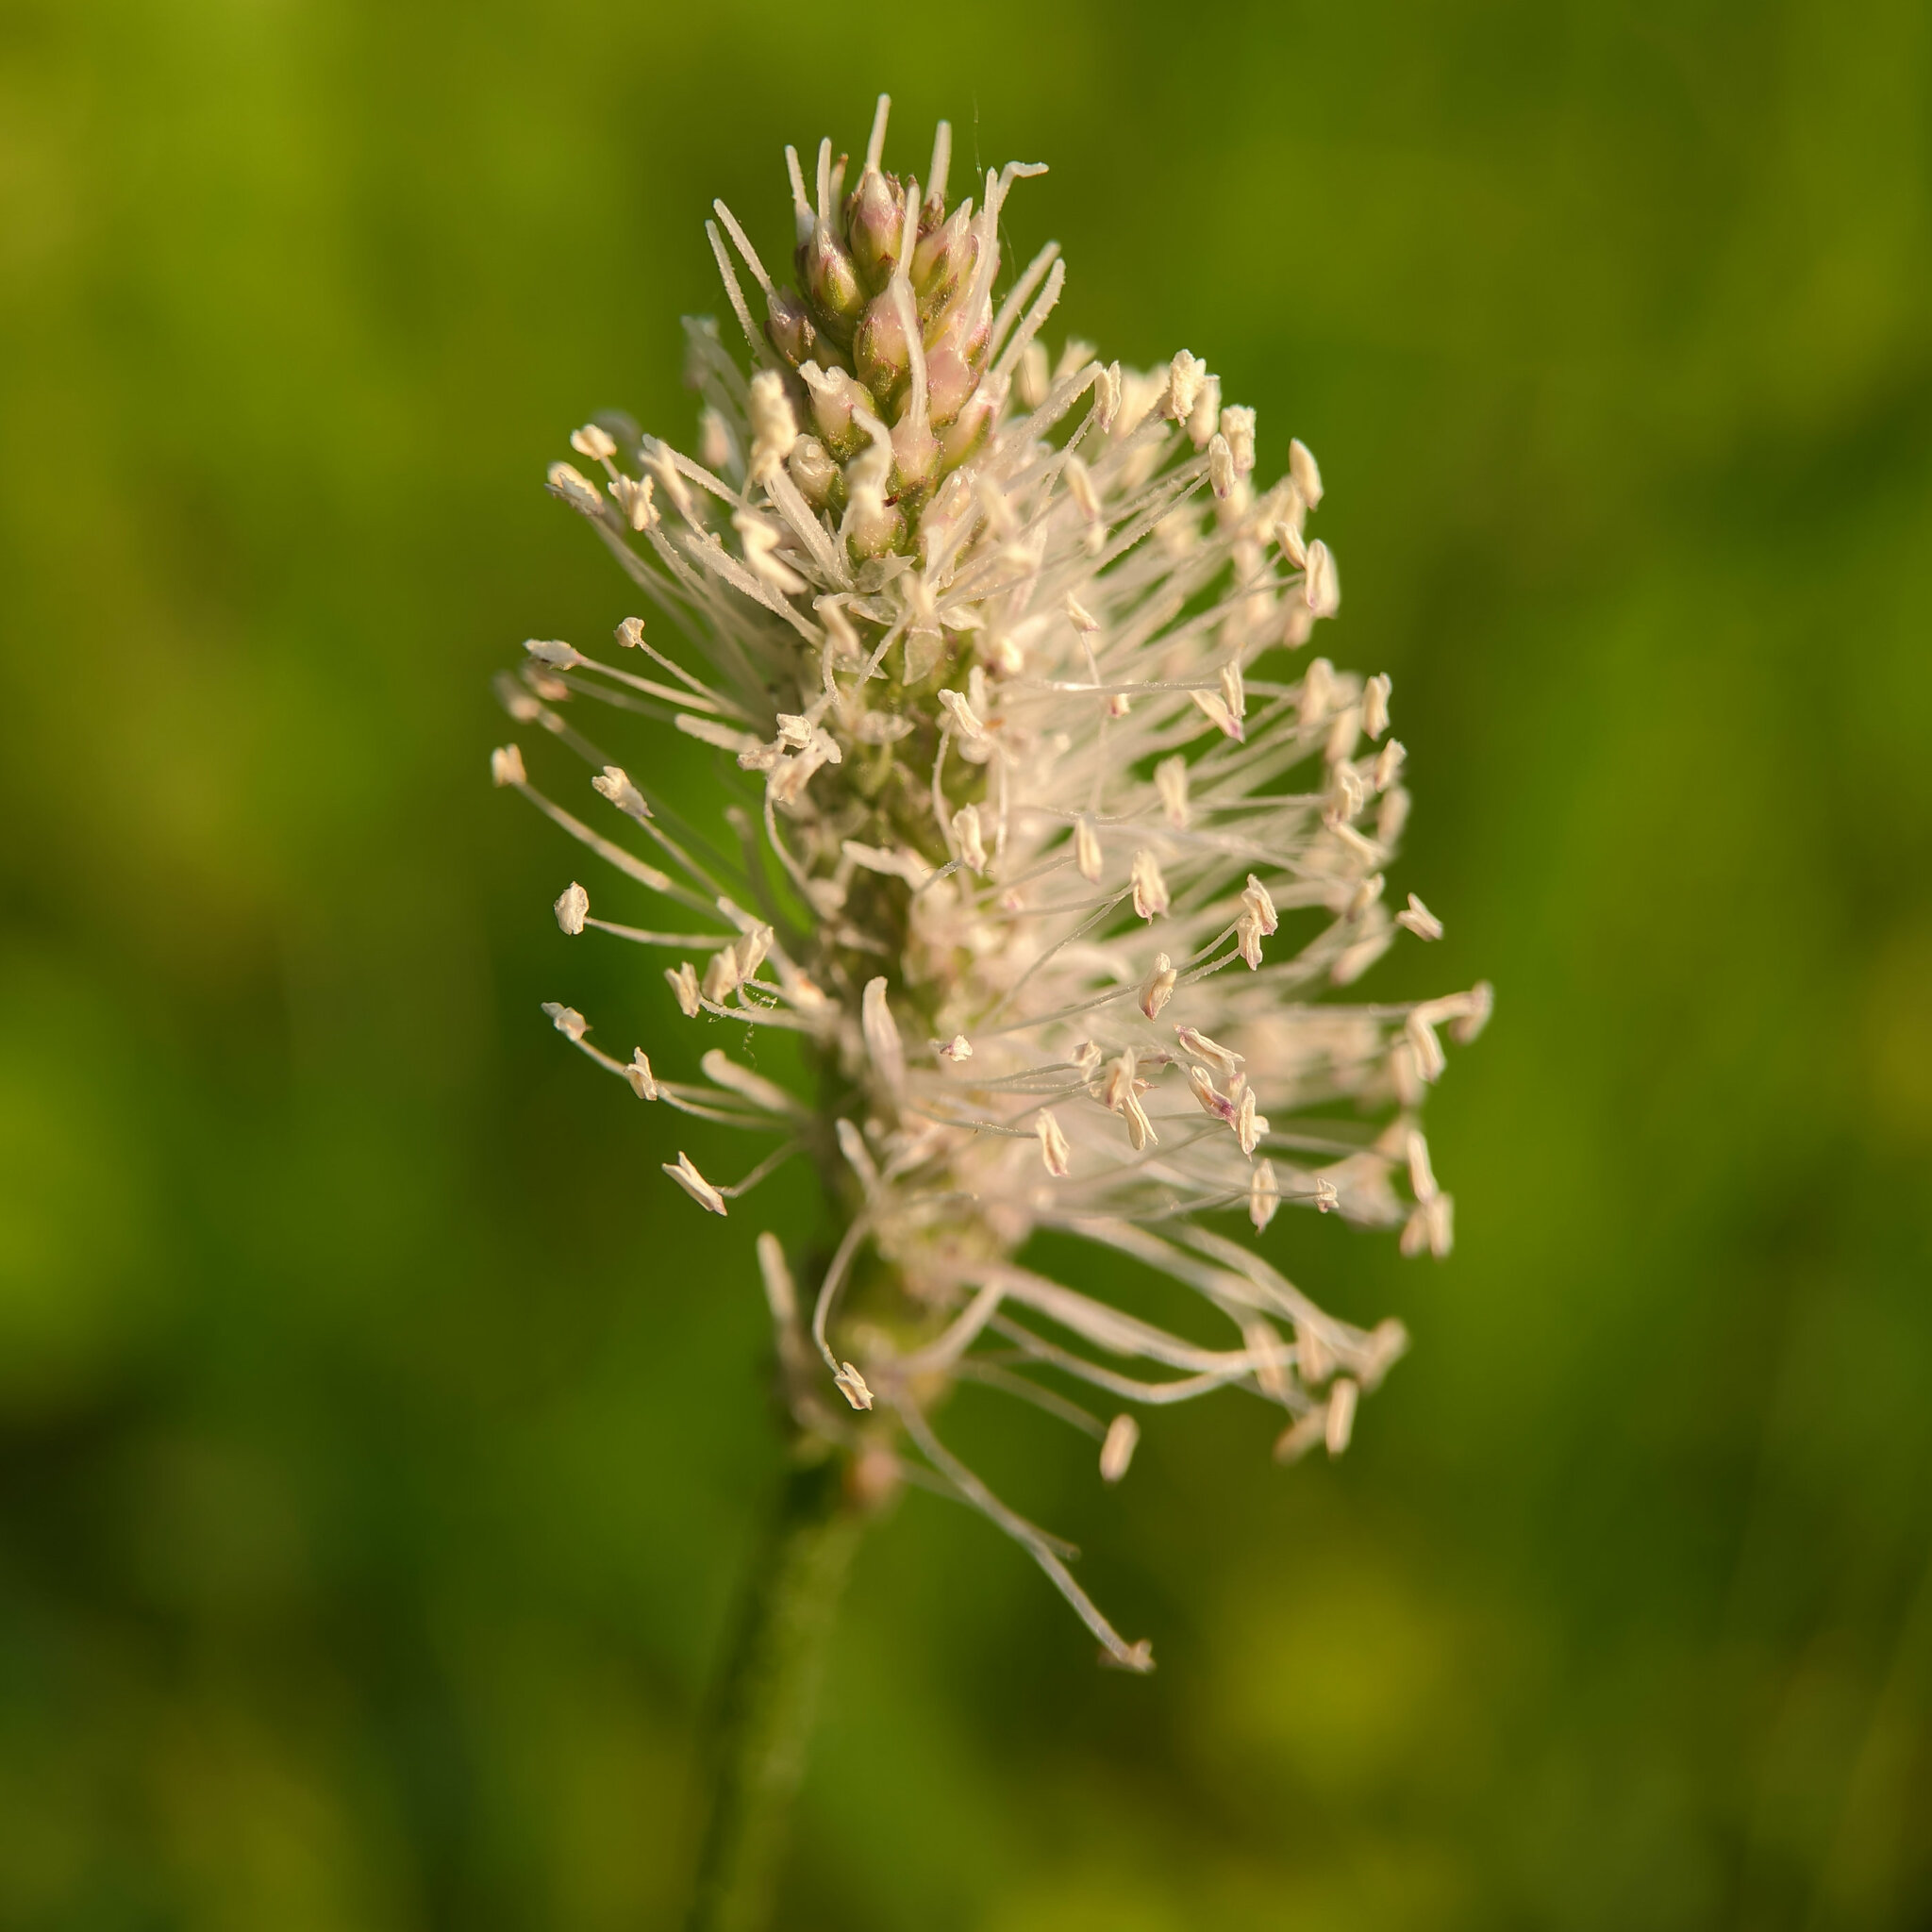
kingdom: Plantae
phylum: Tracheophyta
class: Magnoliopsida
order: Lamiales
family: Plantaginaceae
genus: Plantago
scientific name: Plantago media
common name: Hoary plantain
